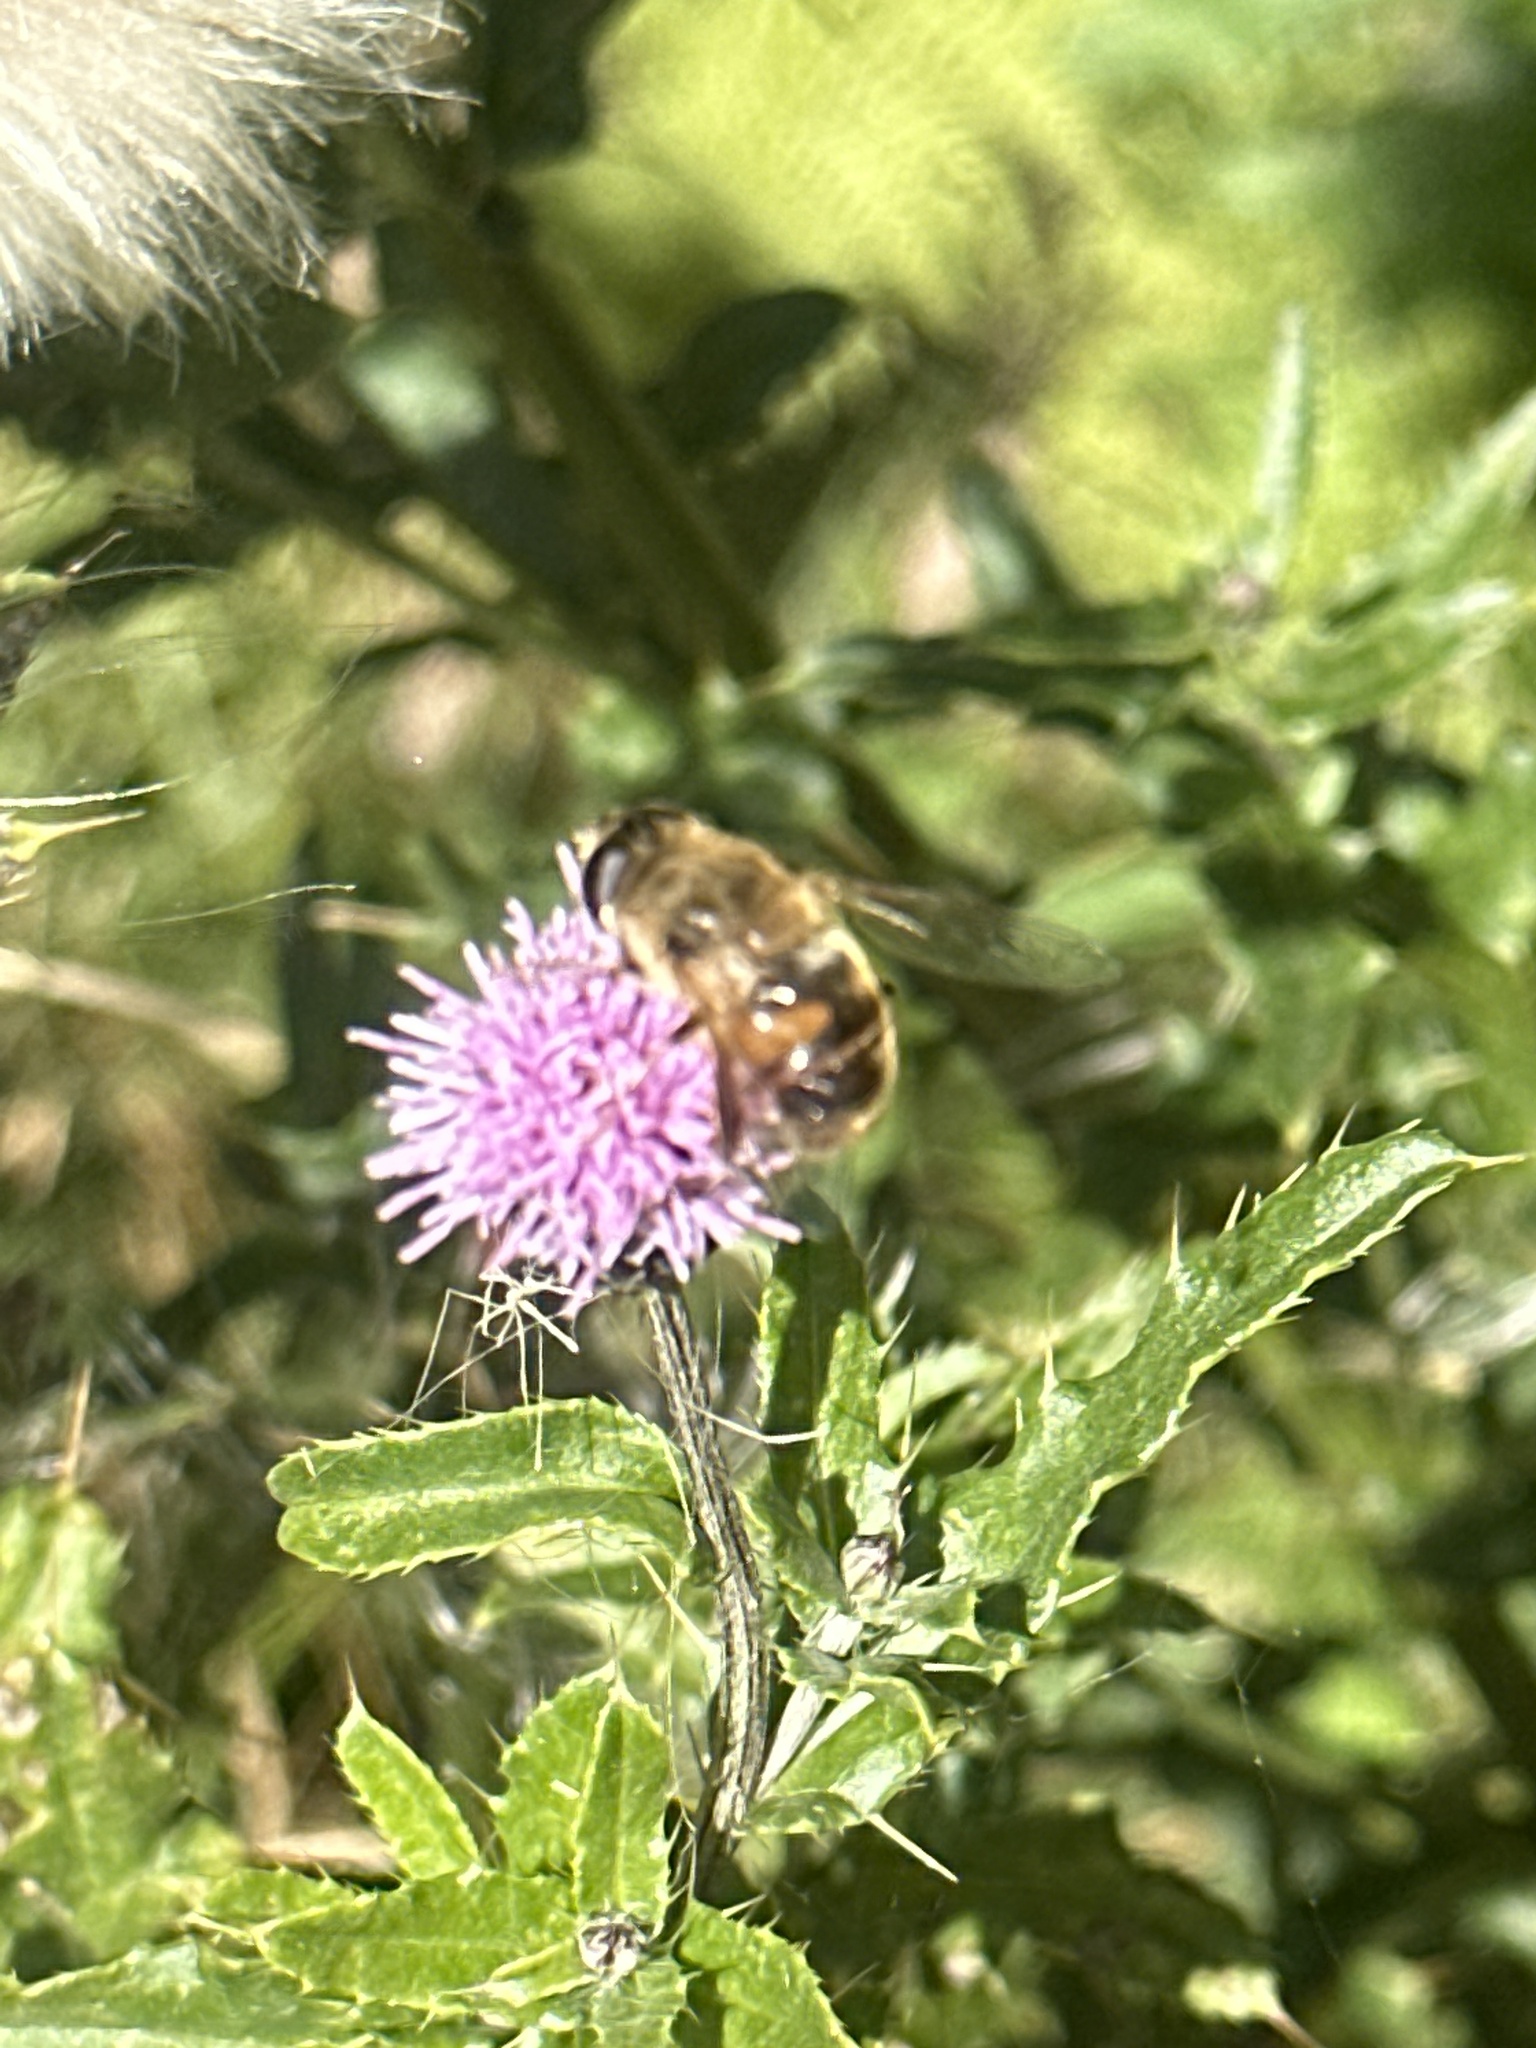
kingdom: Animalia
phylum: Arthropoda
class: Insecta
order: Diptera
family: Syrphidae
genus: Eristalis
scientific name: Eristalis tenax
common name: Drone fly
